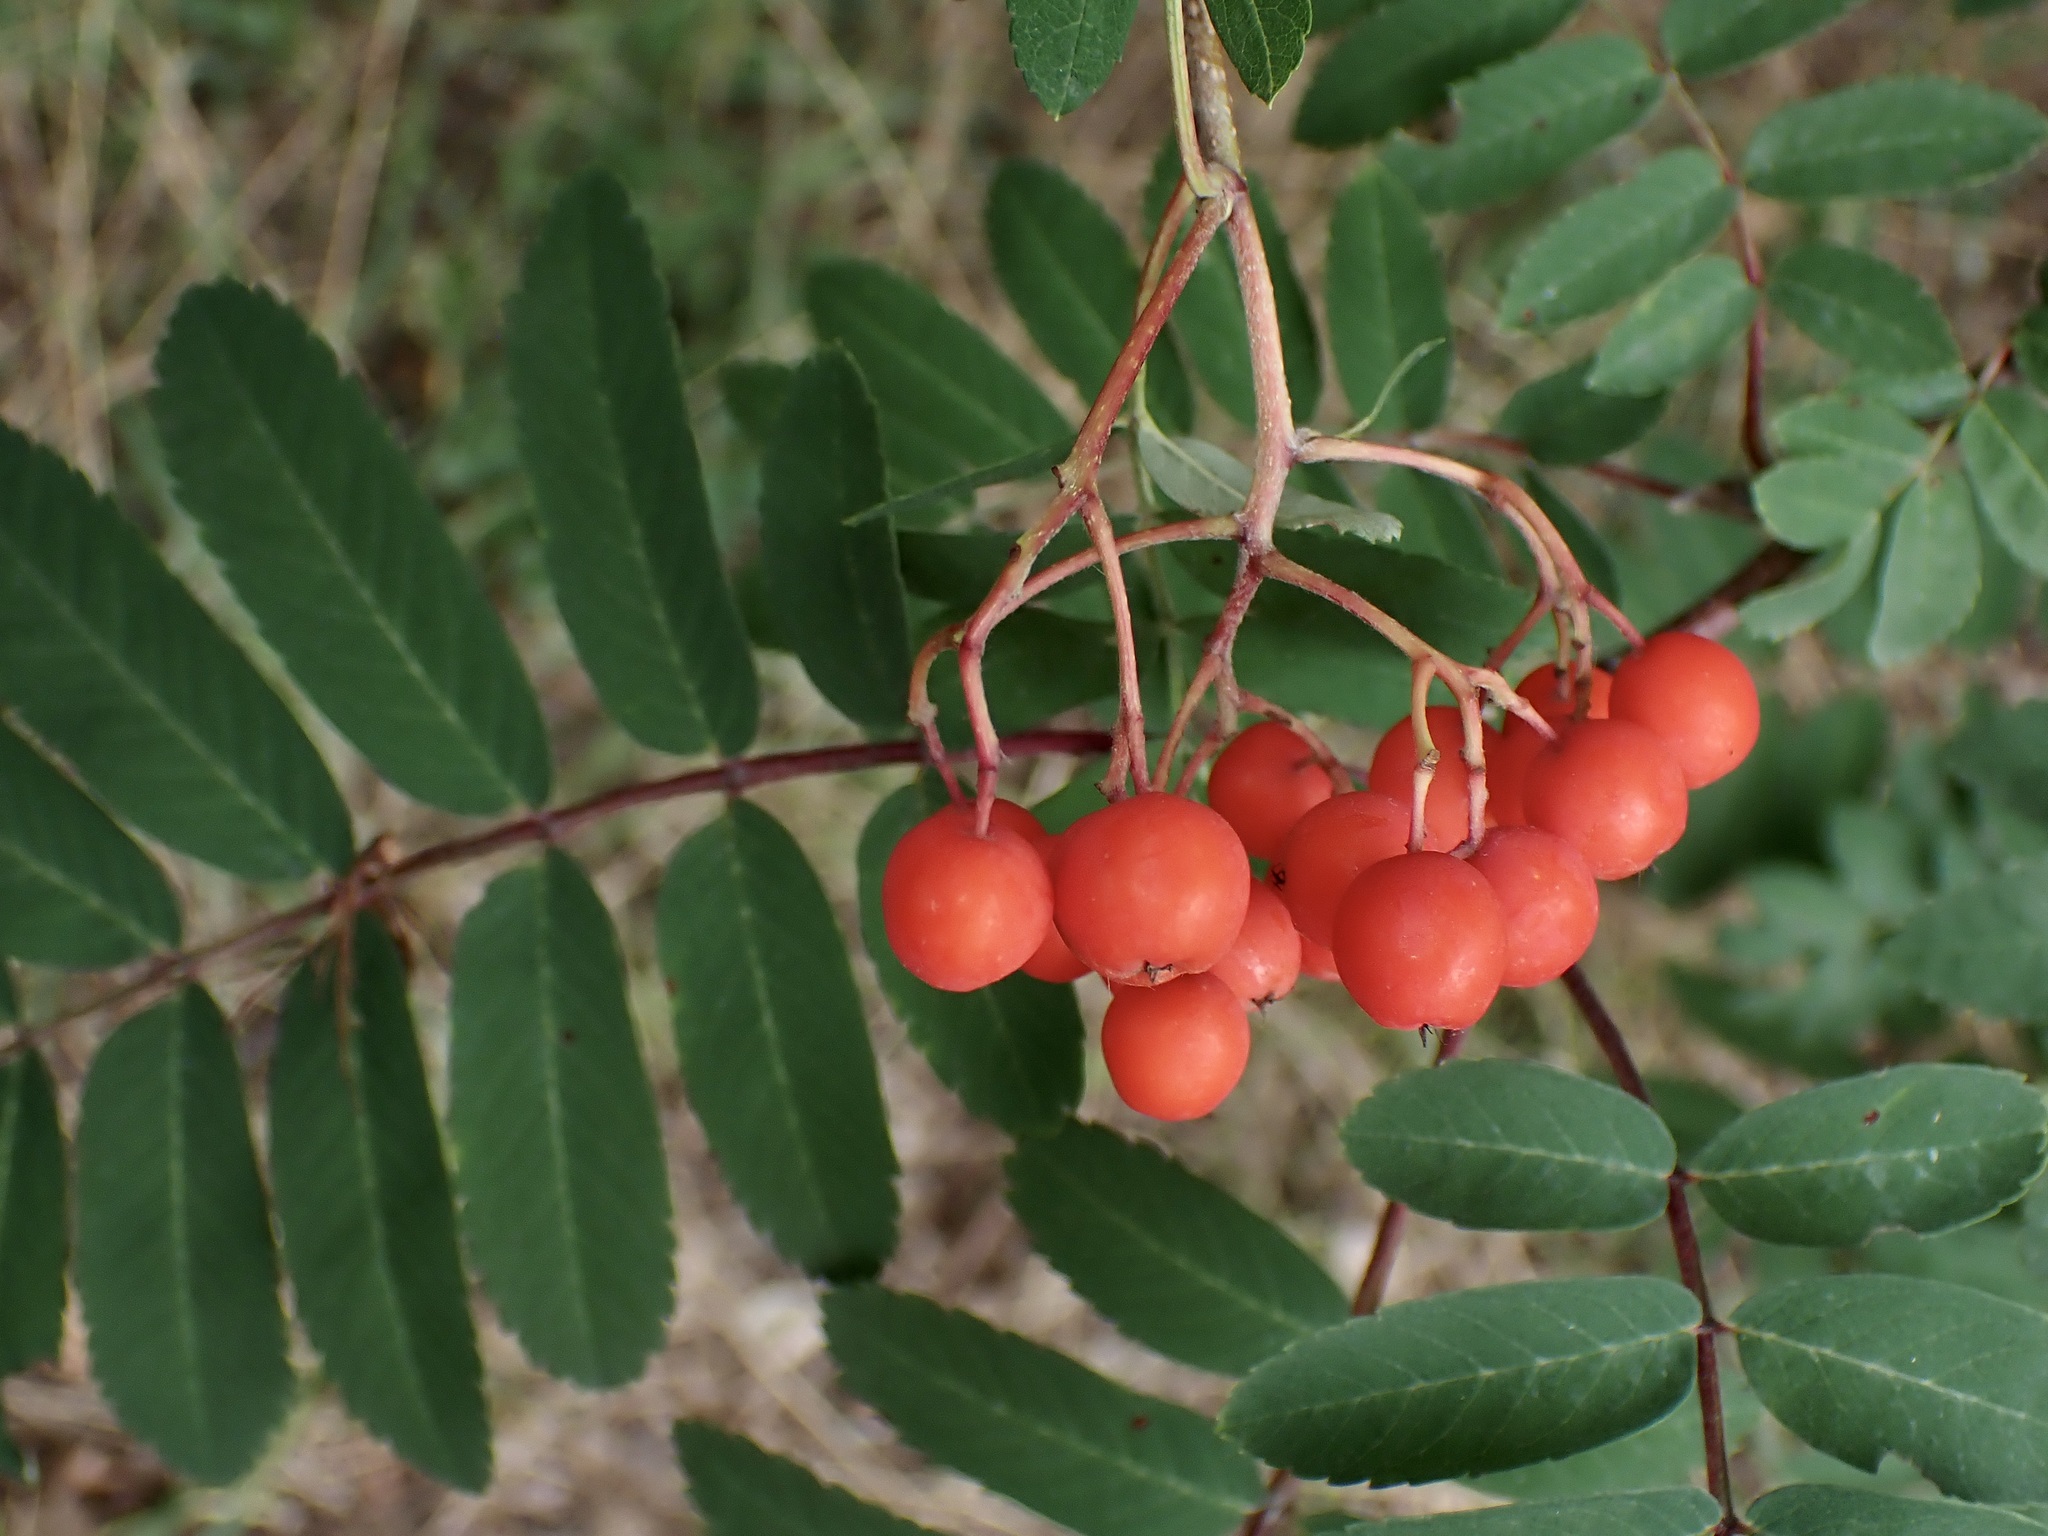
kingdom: Plantae
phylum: Tracheophyta
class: Magnoliopsida
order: Rosales
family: Rosaceae
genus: Sorbus
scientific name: Sorbus aucuparia
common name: Rowan
